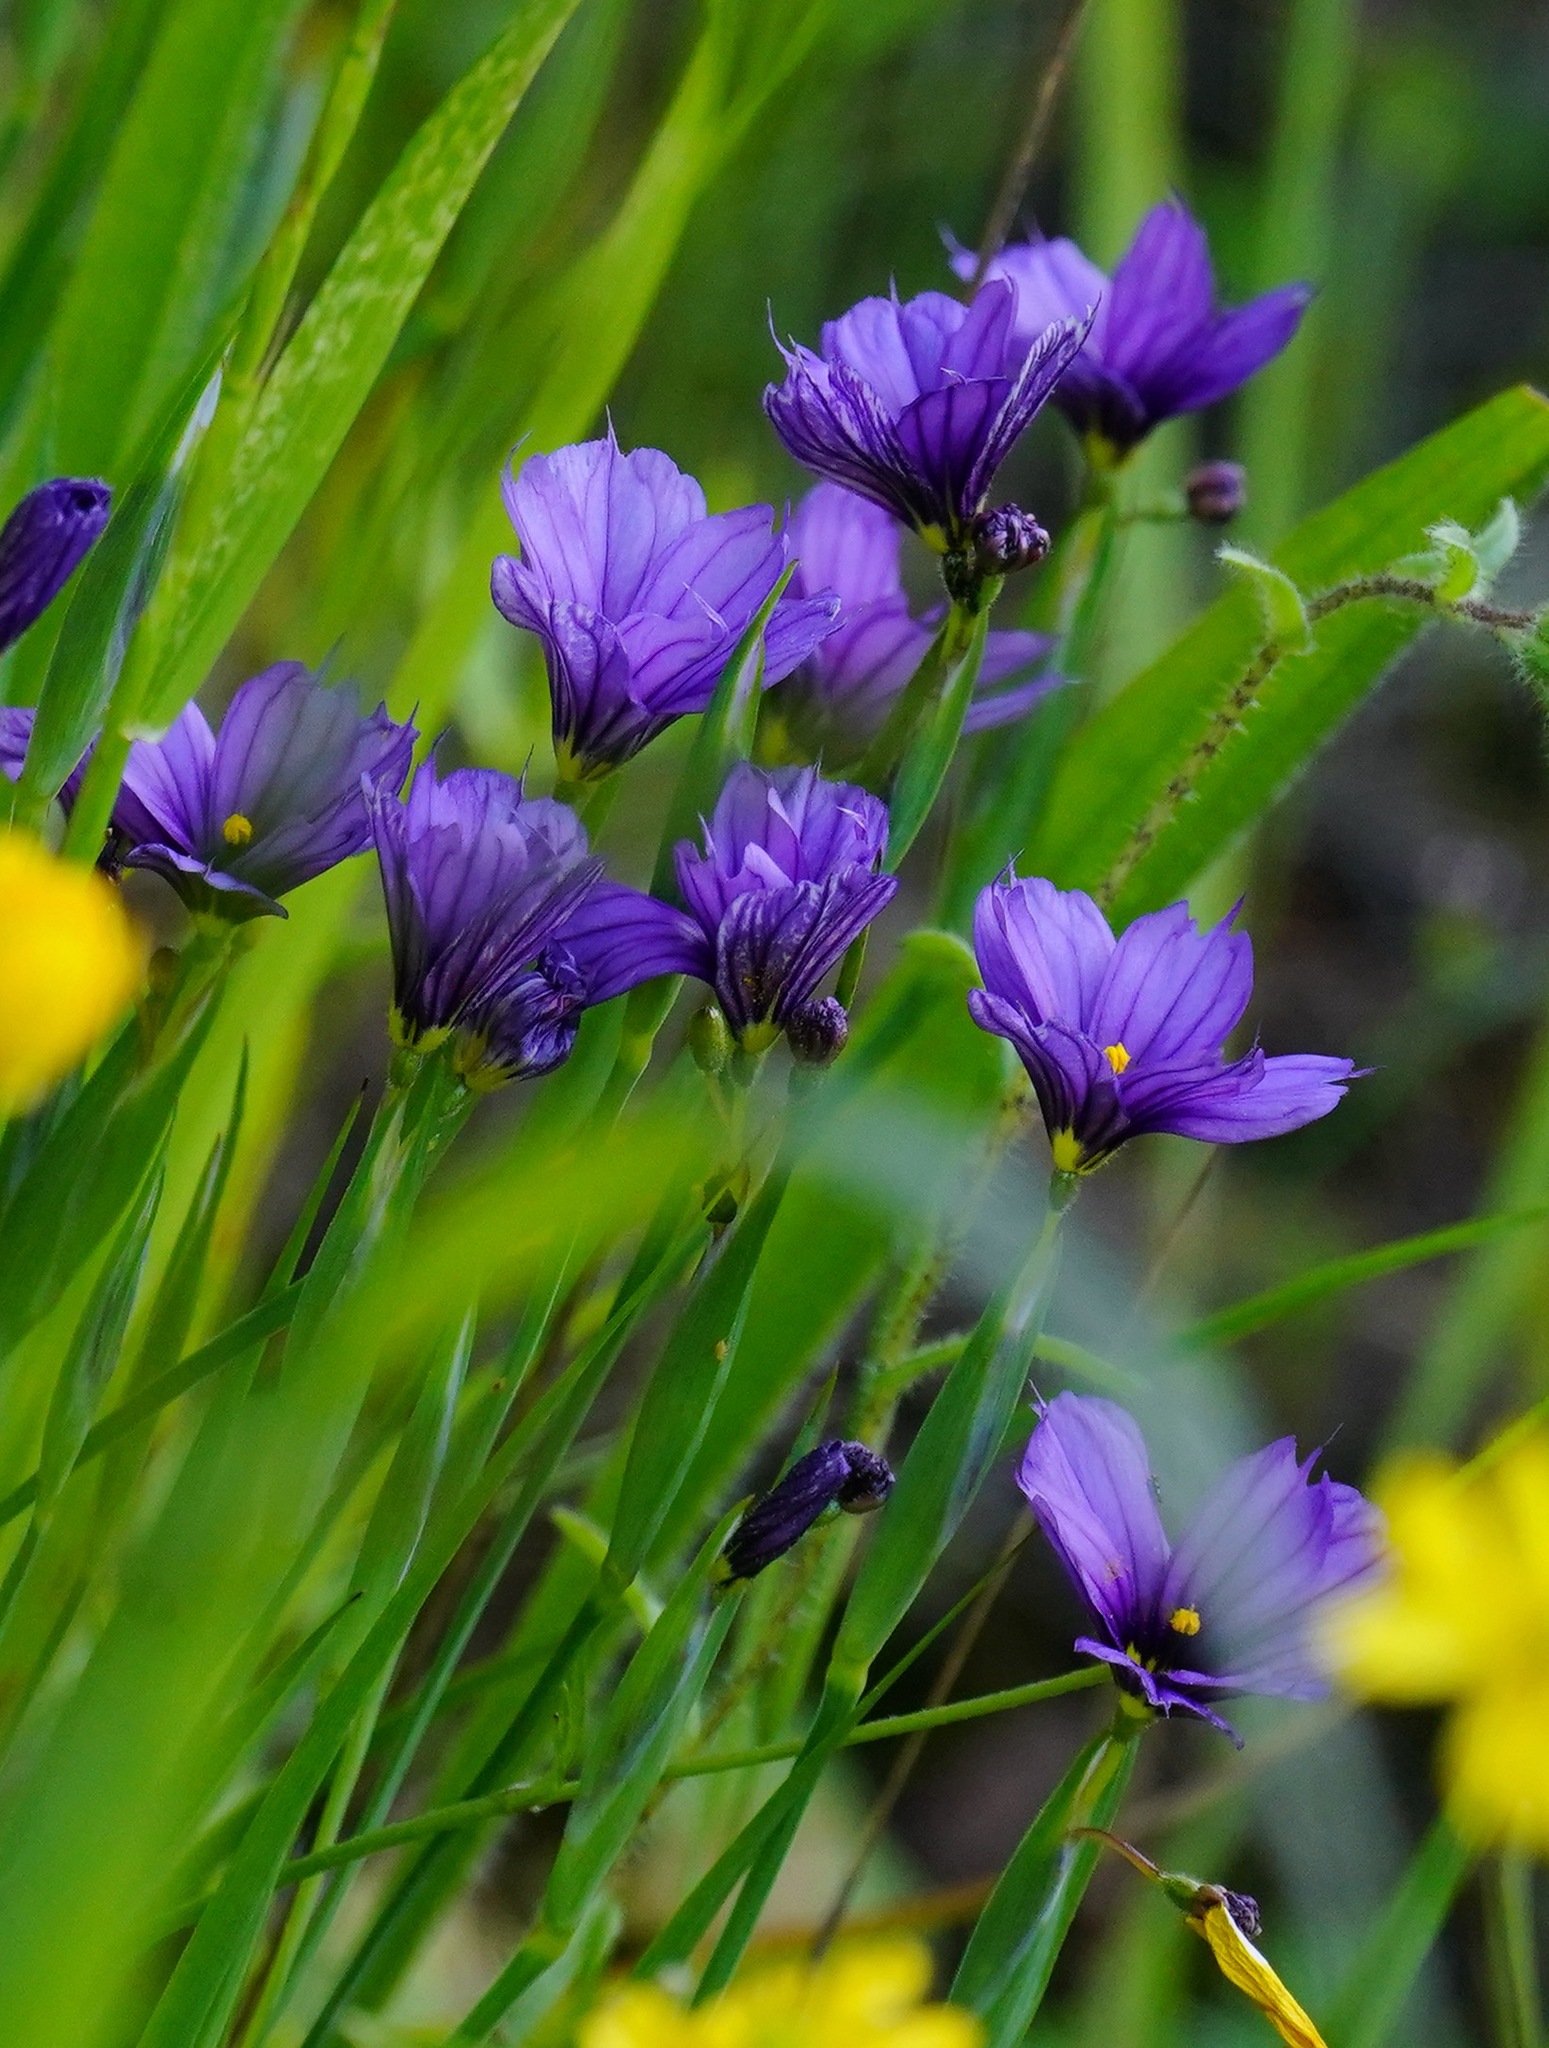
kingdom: Plantae
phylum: Tracheophyta
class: Liliopsida
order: Asparagales
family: Iridaceae
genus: Sisyrinchium
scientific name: Sisyrinchium bellum
